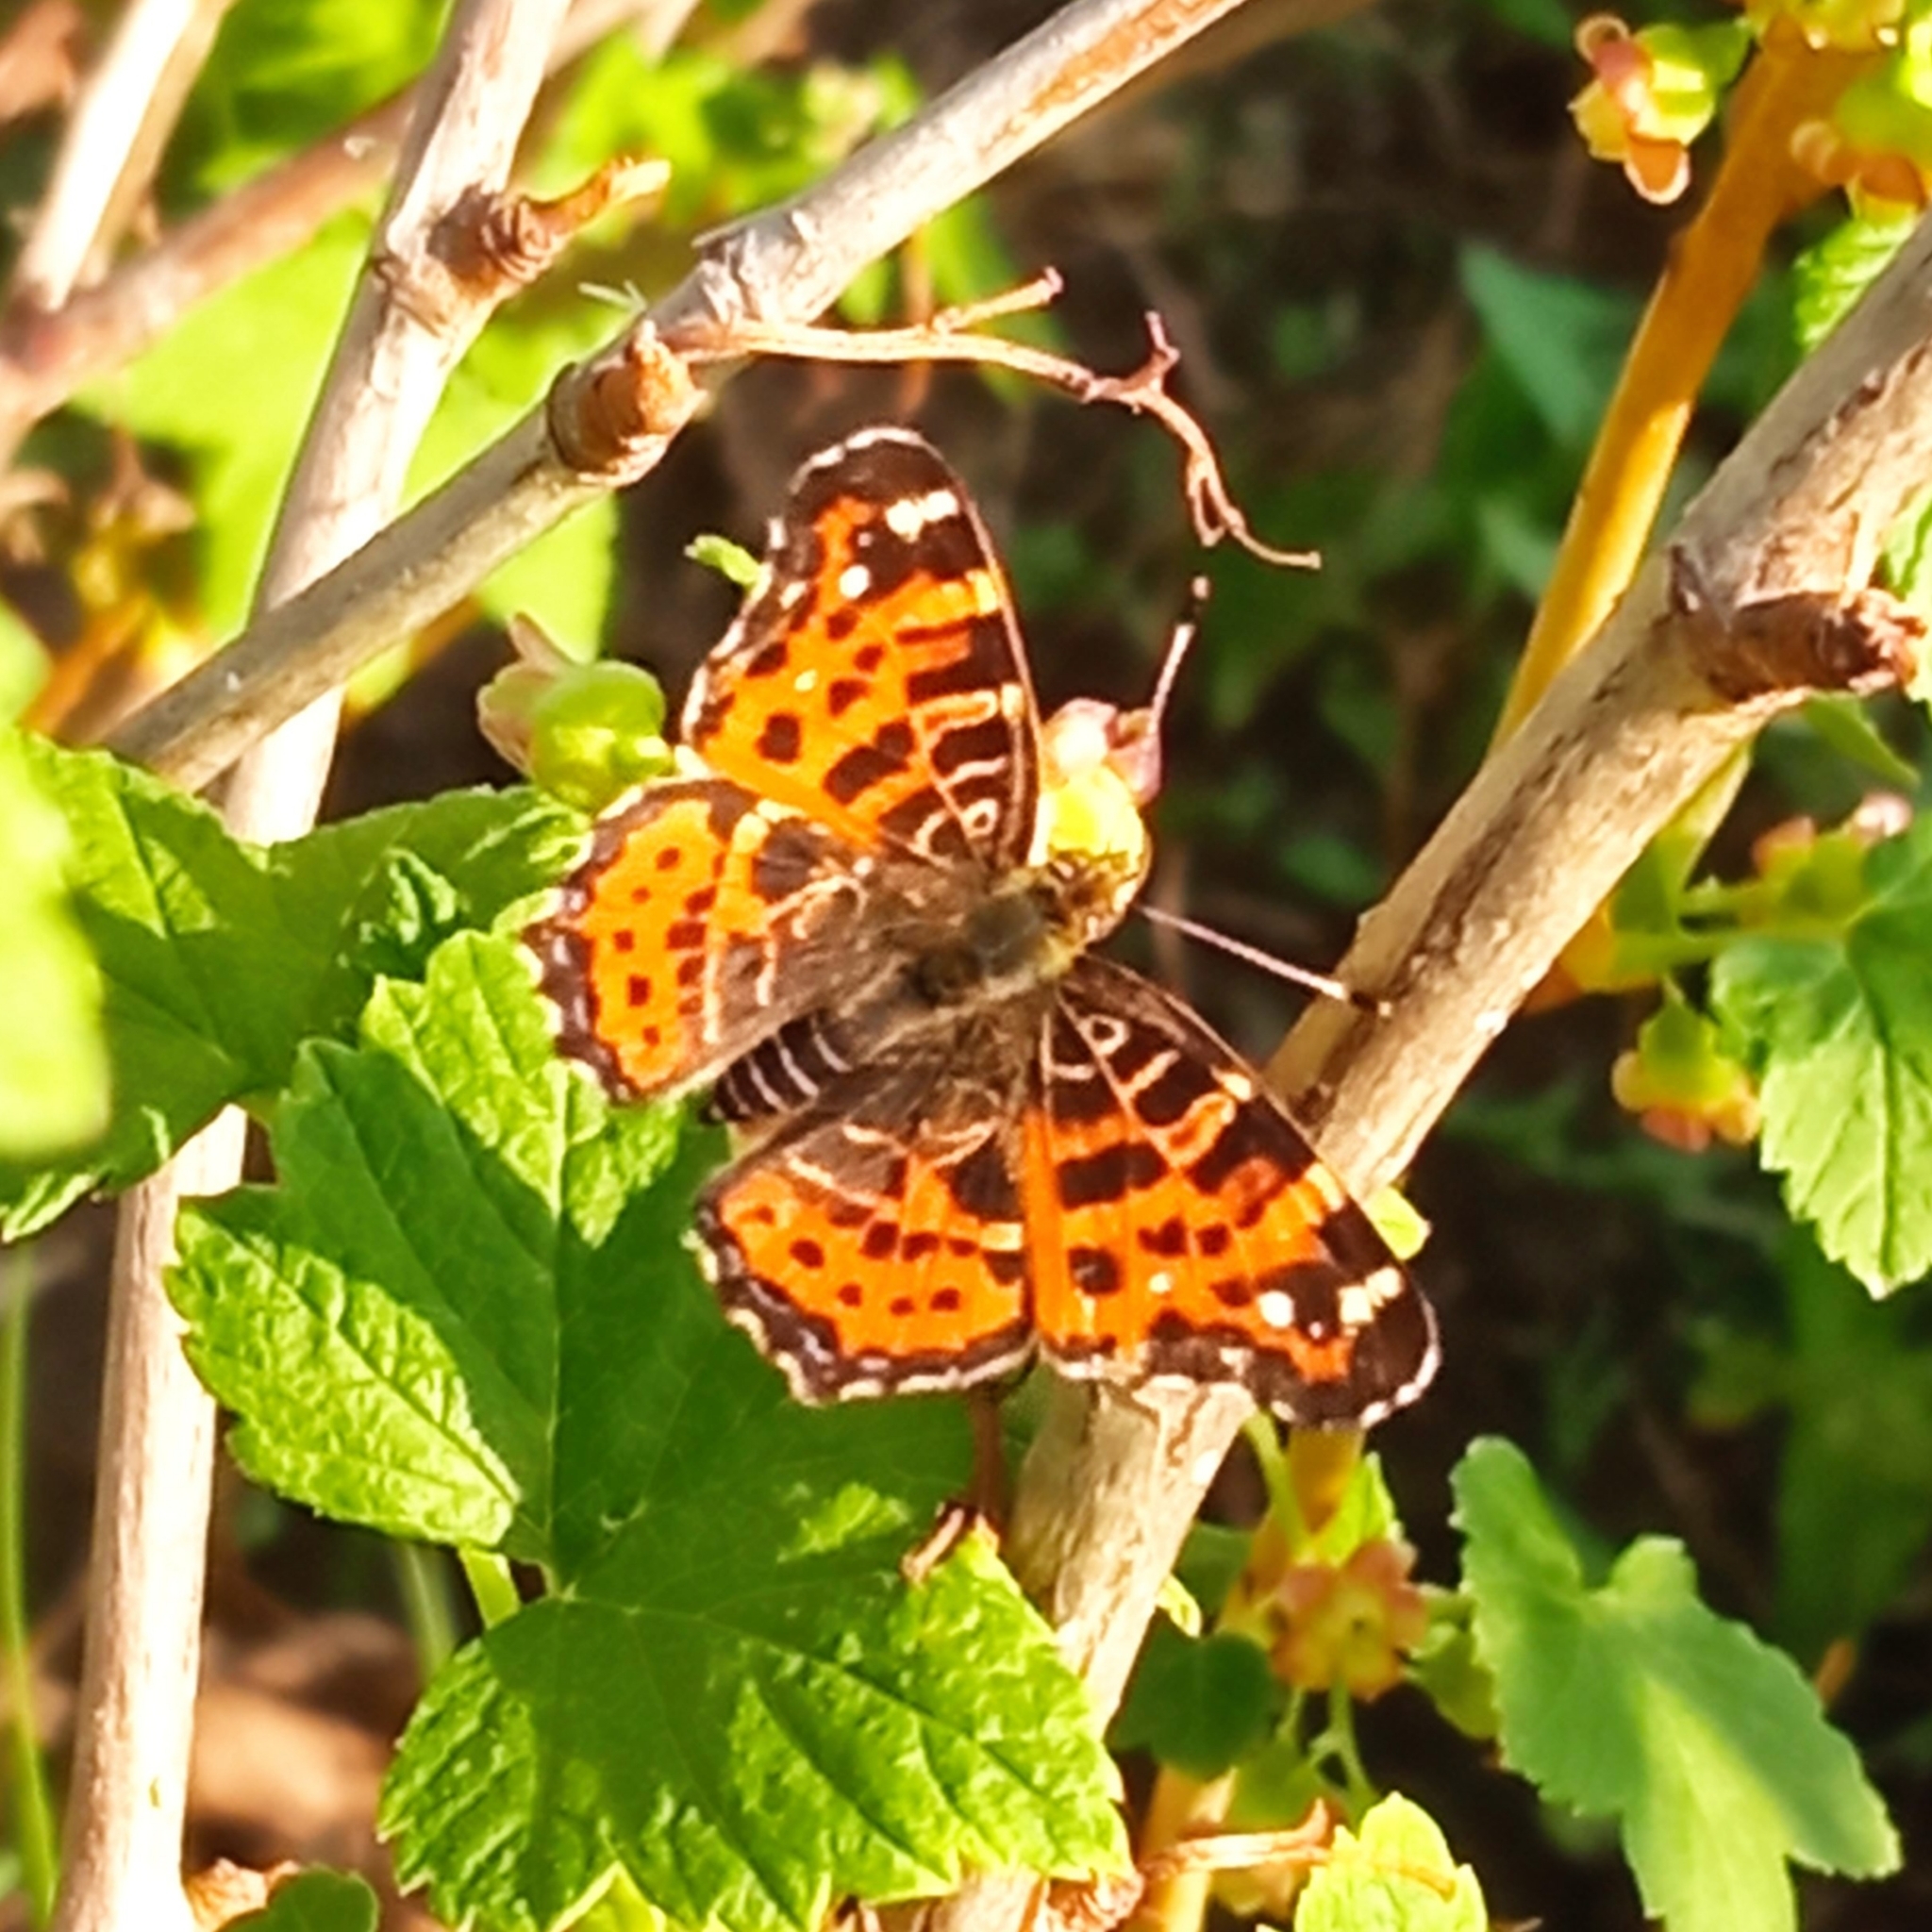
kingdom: Animalia
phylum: Arthropoda
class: Insecta
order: Lepidoptera
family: Nymphalidae
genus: Araschnia
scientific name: Araschnia levana
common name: Map butterfly
